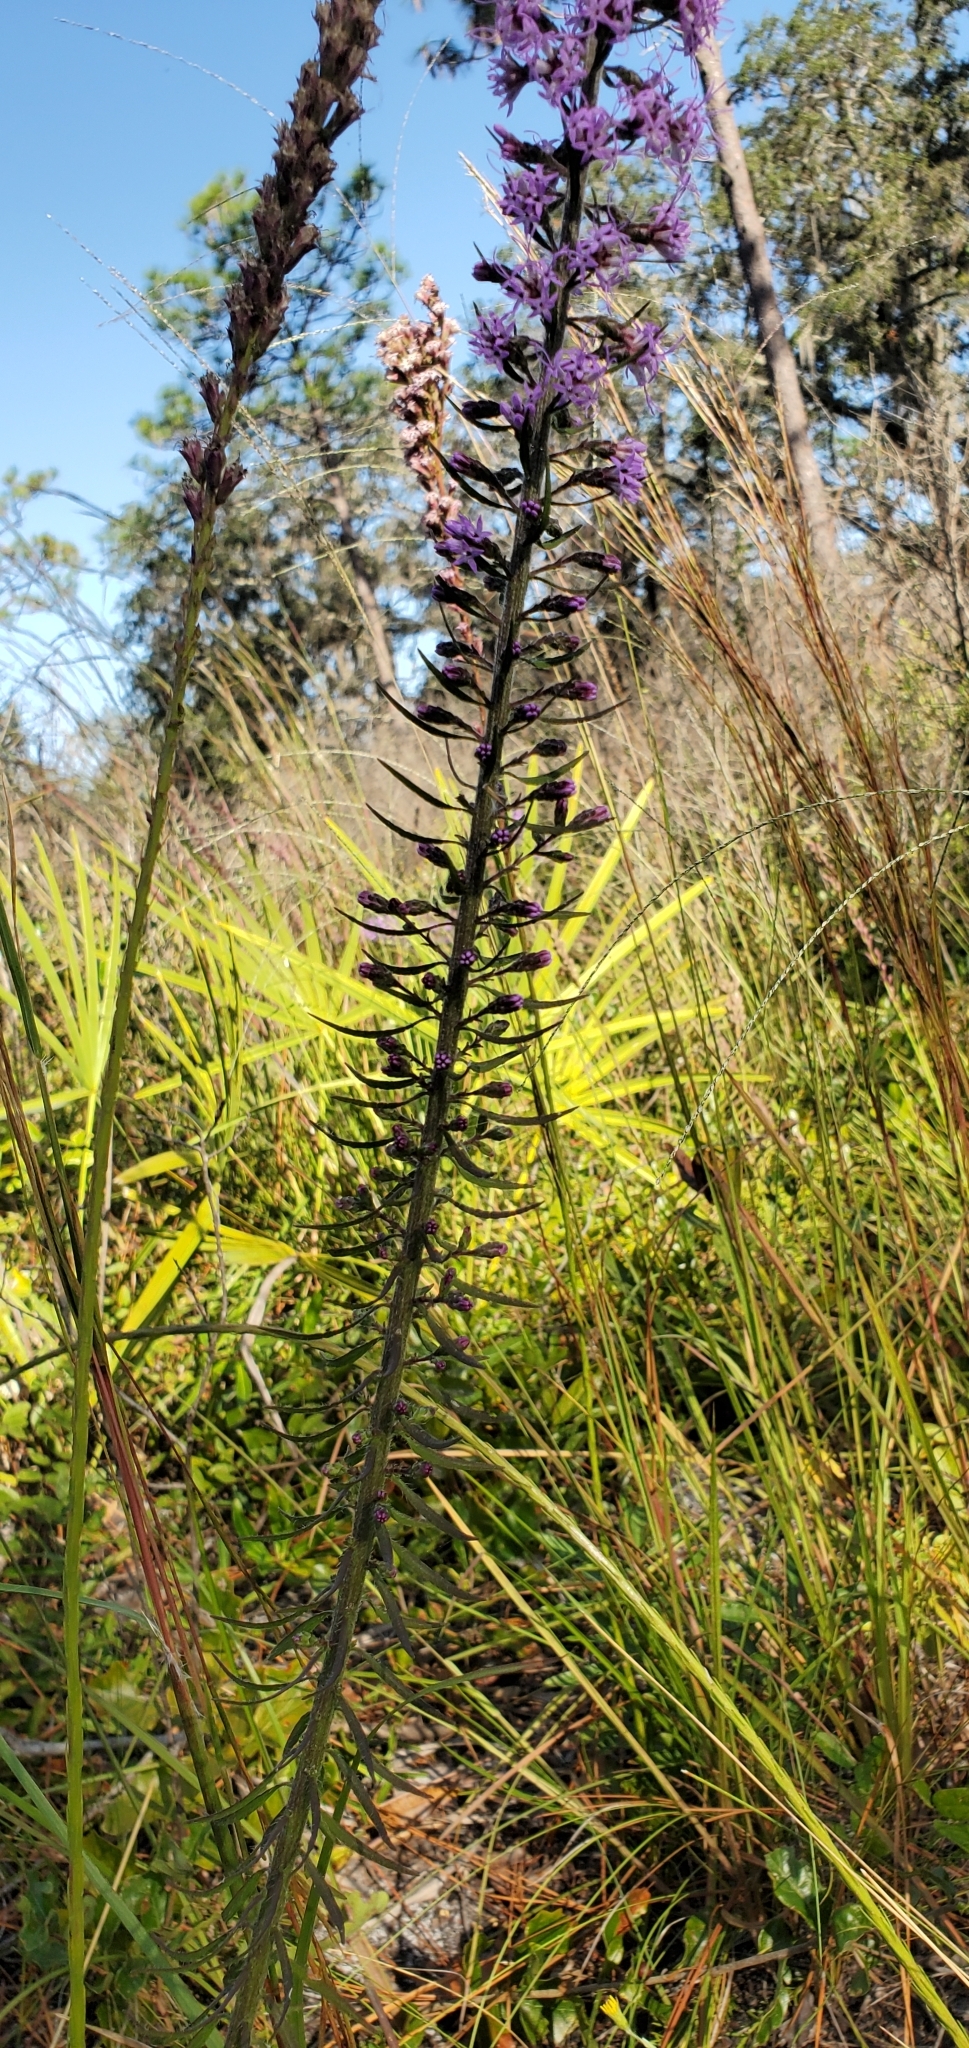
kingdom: Plantae
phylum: Tracheophyta
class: Magnoliopsida
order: Asterales
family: Asteraceae
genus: Liatris
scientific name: Liatris gracilis
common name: Slender gayfeather
